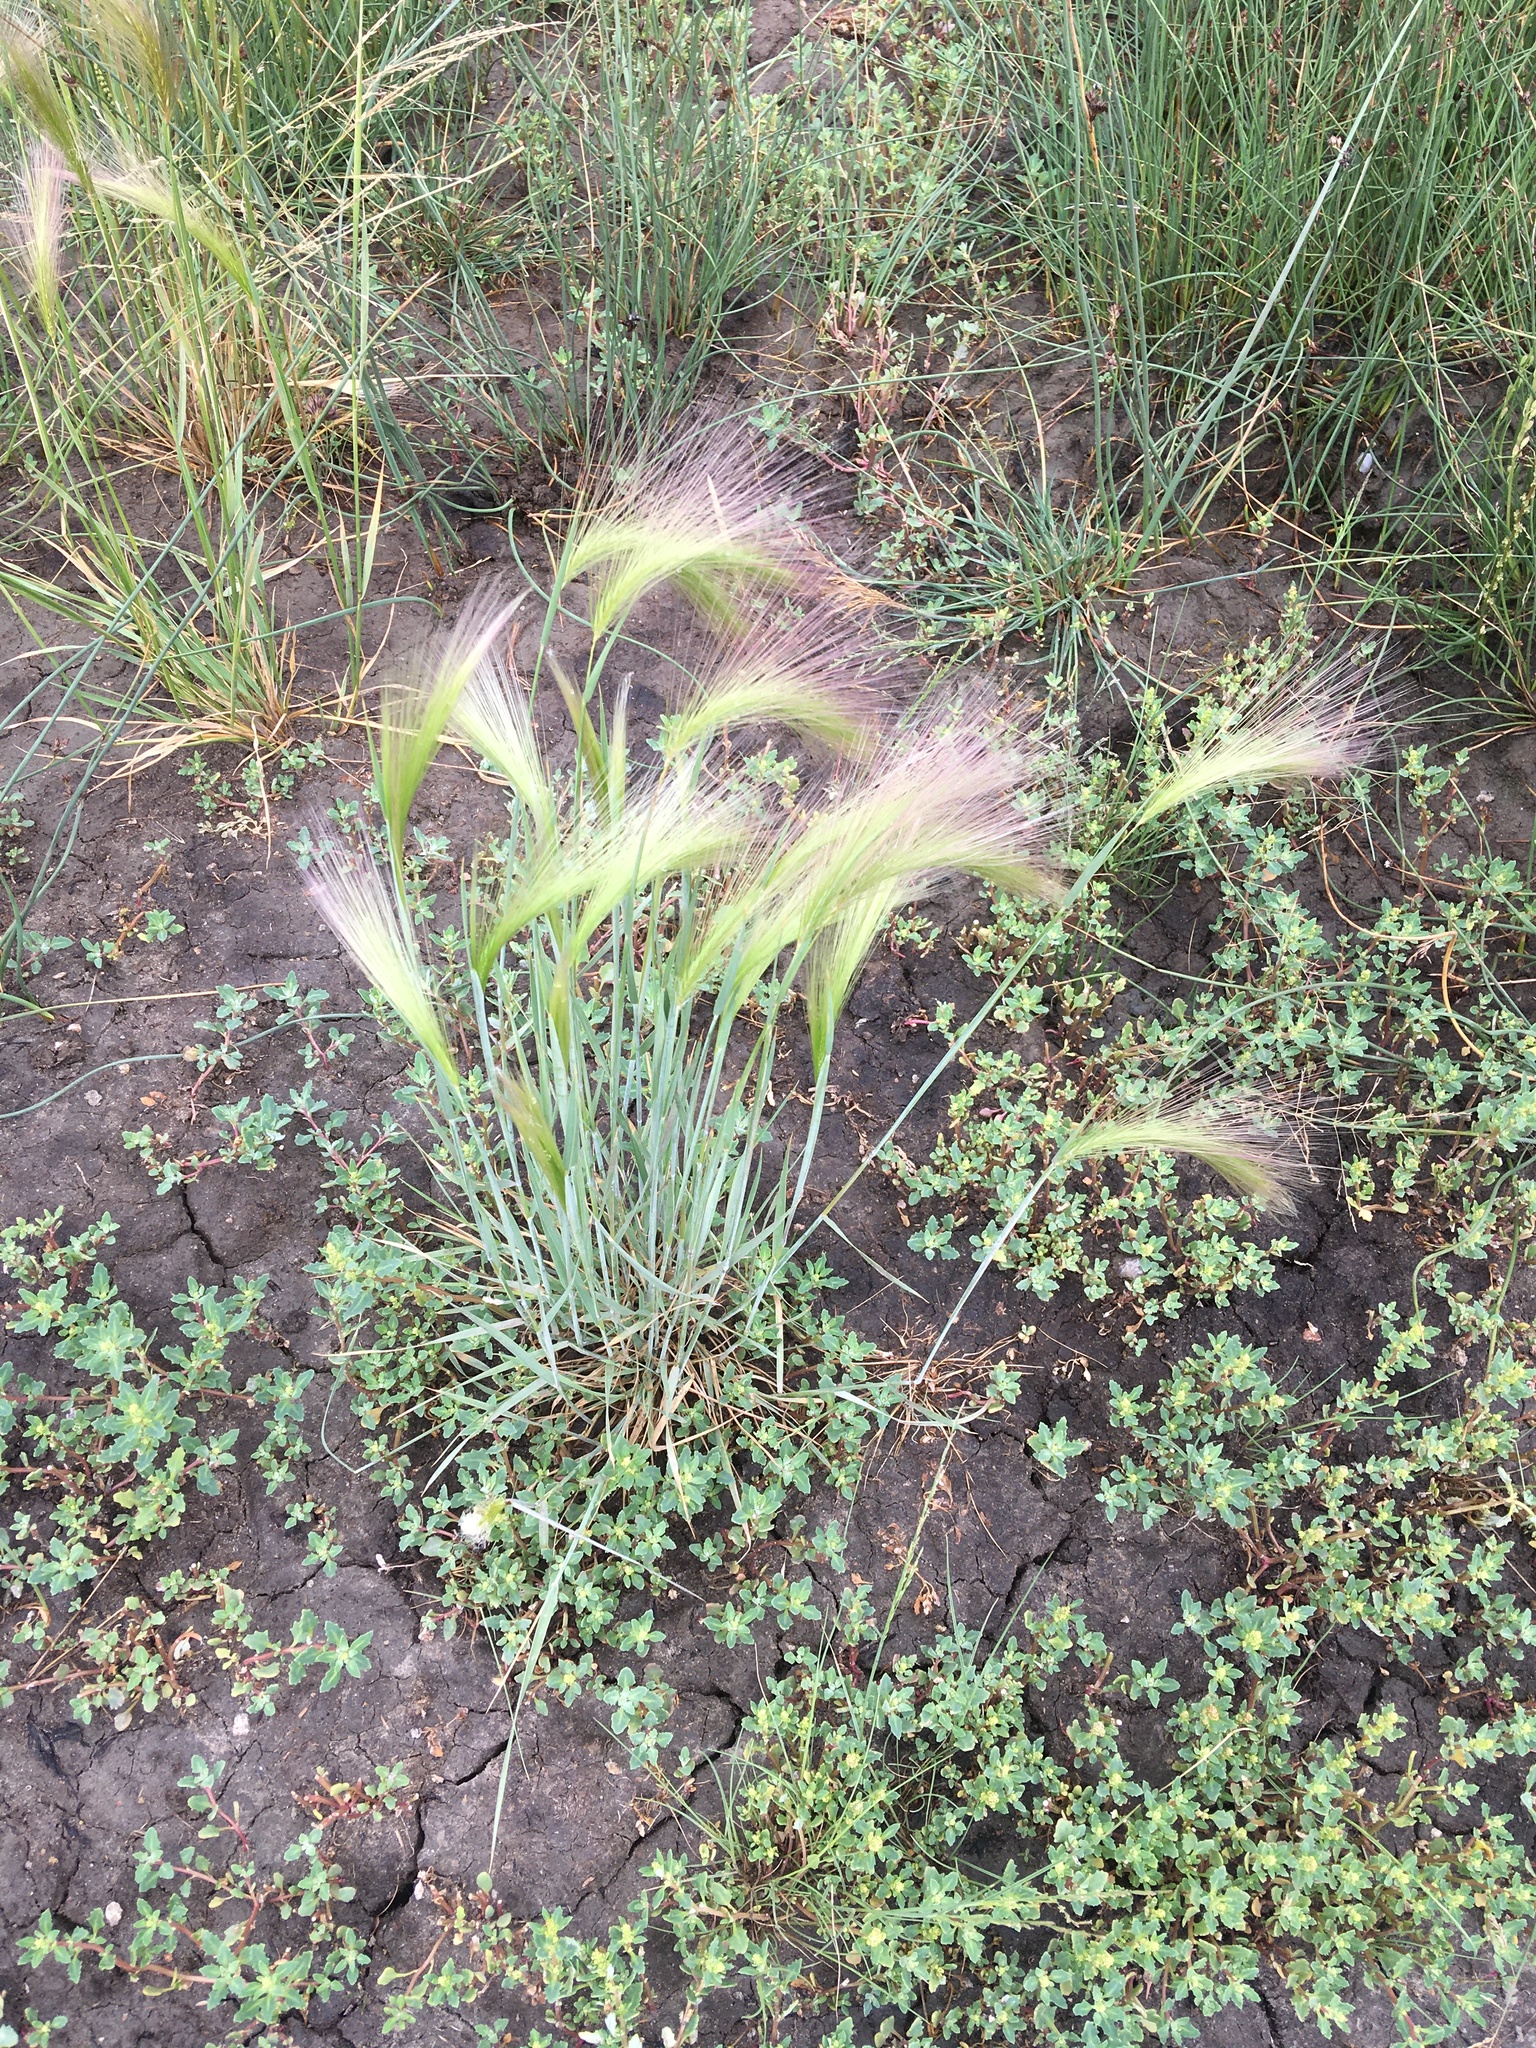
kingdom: Plantae
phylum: Tracheophyta
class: Liliopsida
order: Poales
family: Poaceae
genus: Hordeum
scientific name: Hordeum jubatum
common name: Foxtail barley
